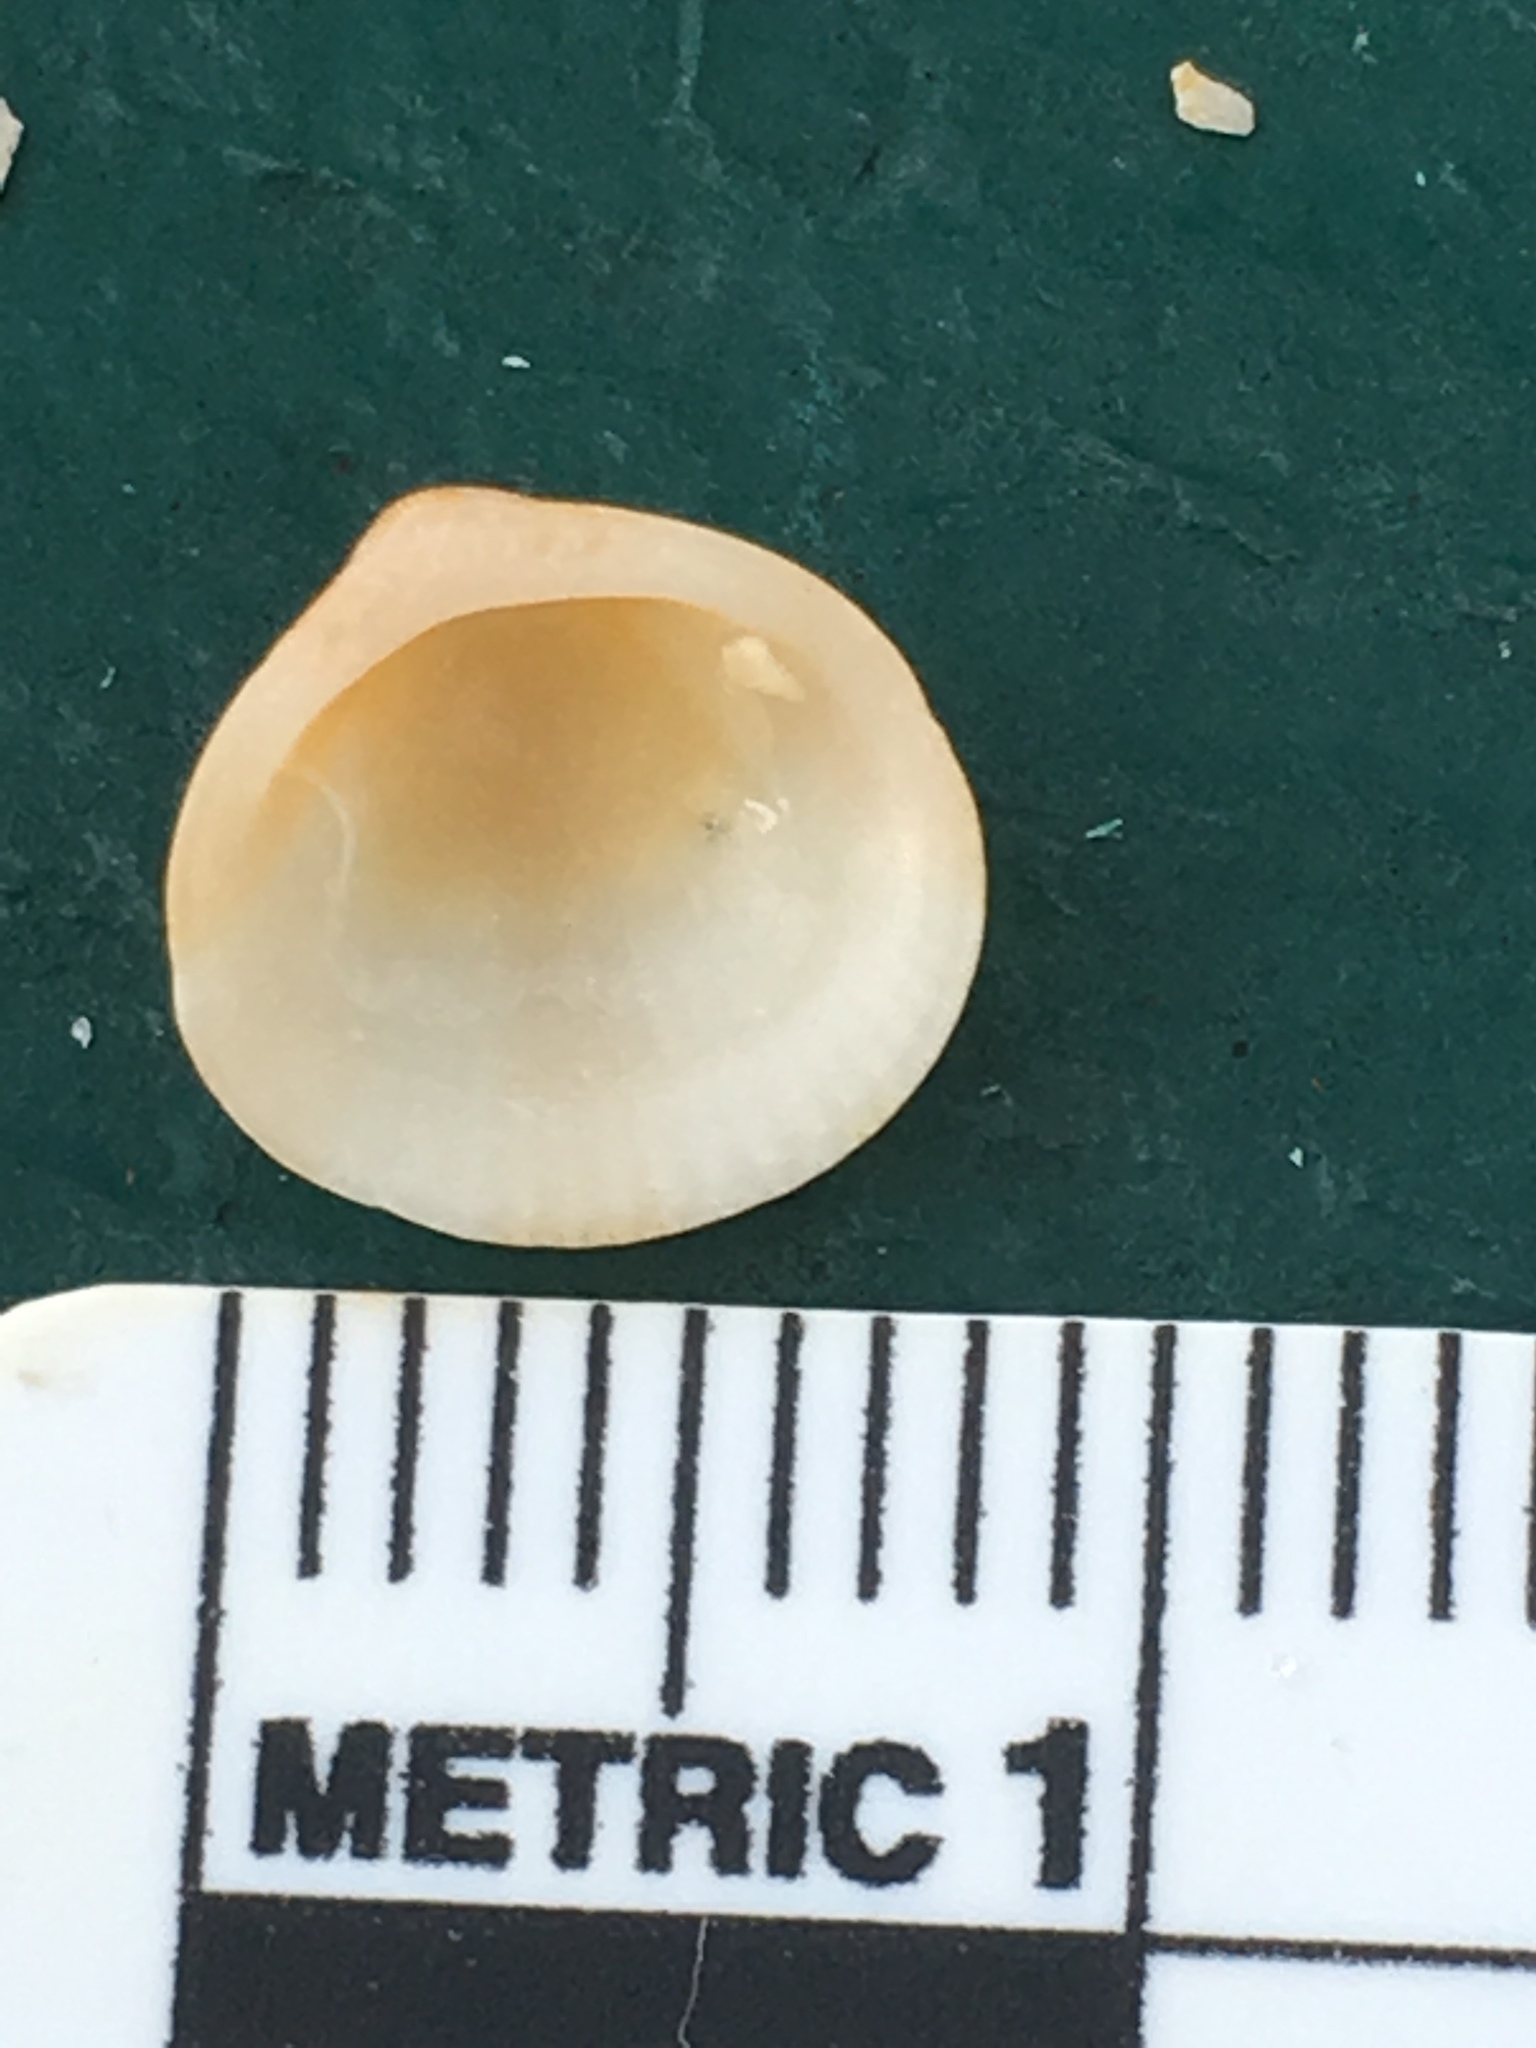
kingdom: Animalia
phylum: Mollusca
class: Bivalvia
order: Arcida
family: Glycymerididae
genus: Glycymeris
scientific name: Glycymeris spectralis
